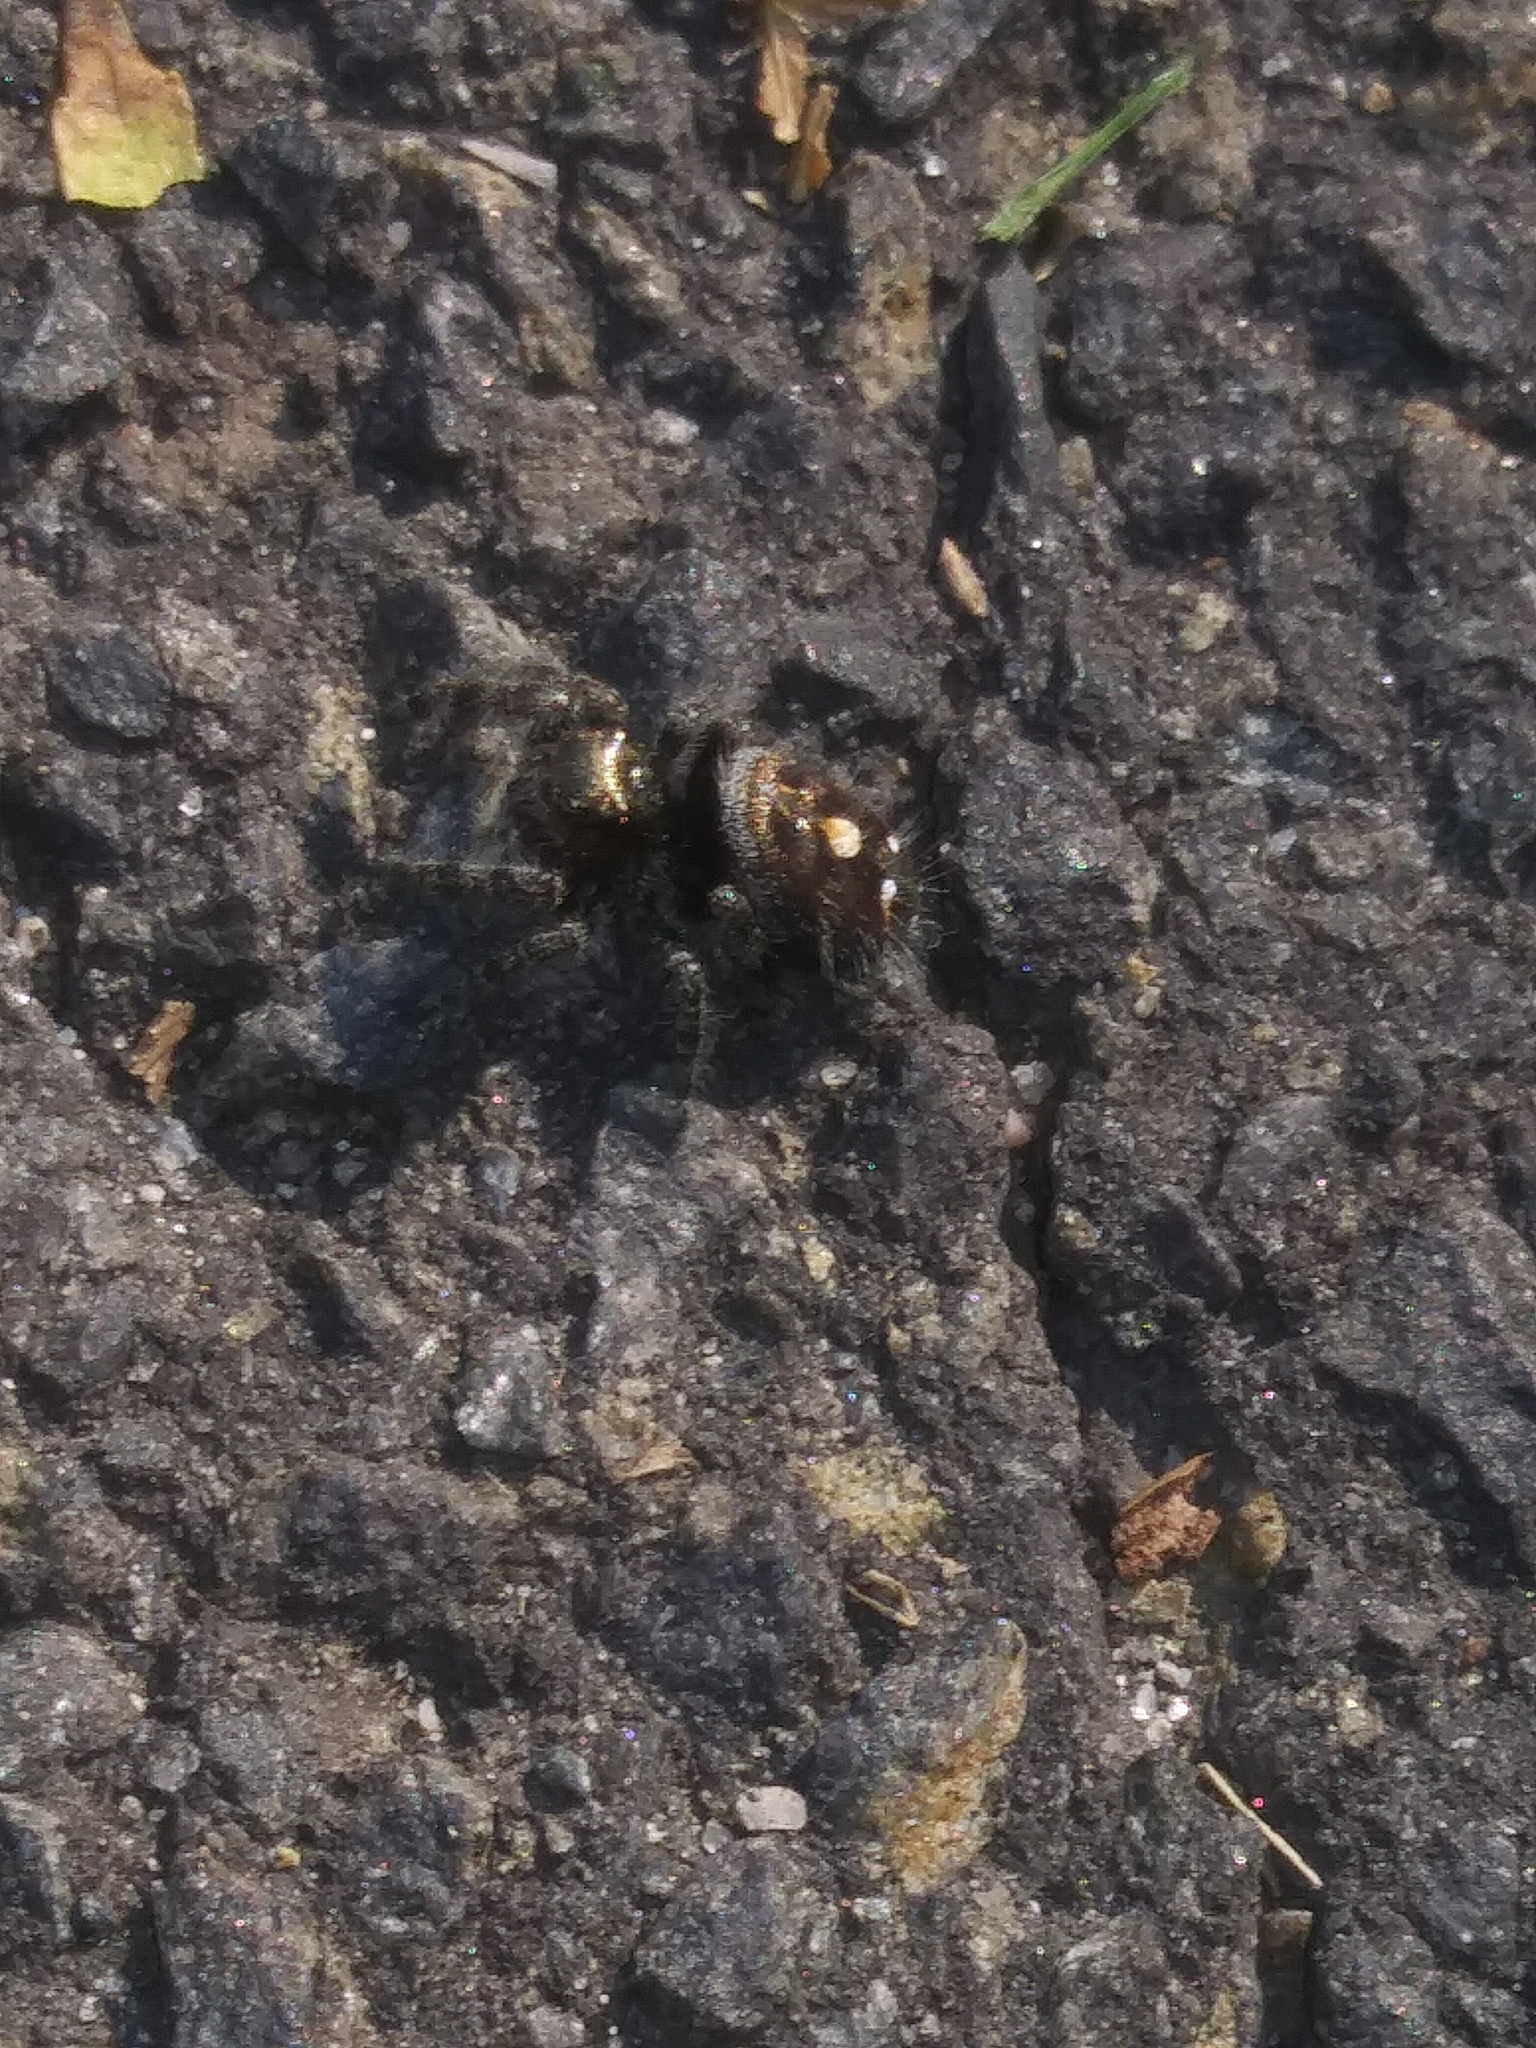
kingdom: Animalia
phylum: Arthropoda
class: Arachnida
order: Araneae
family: Salticidae
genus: Phidippus
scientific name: Phidippus audax
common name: Bold jumper
